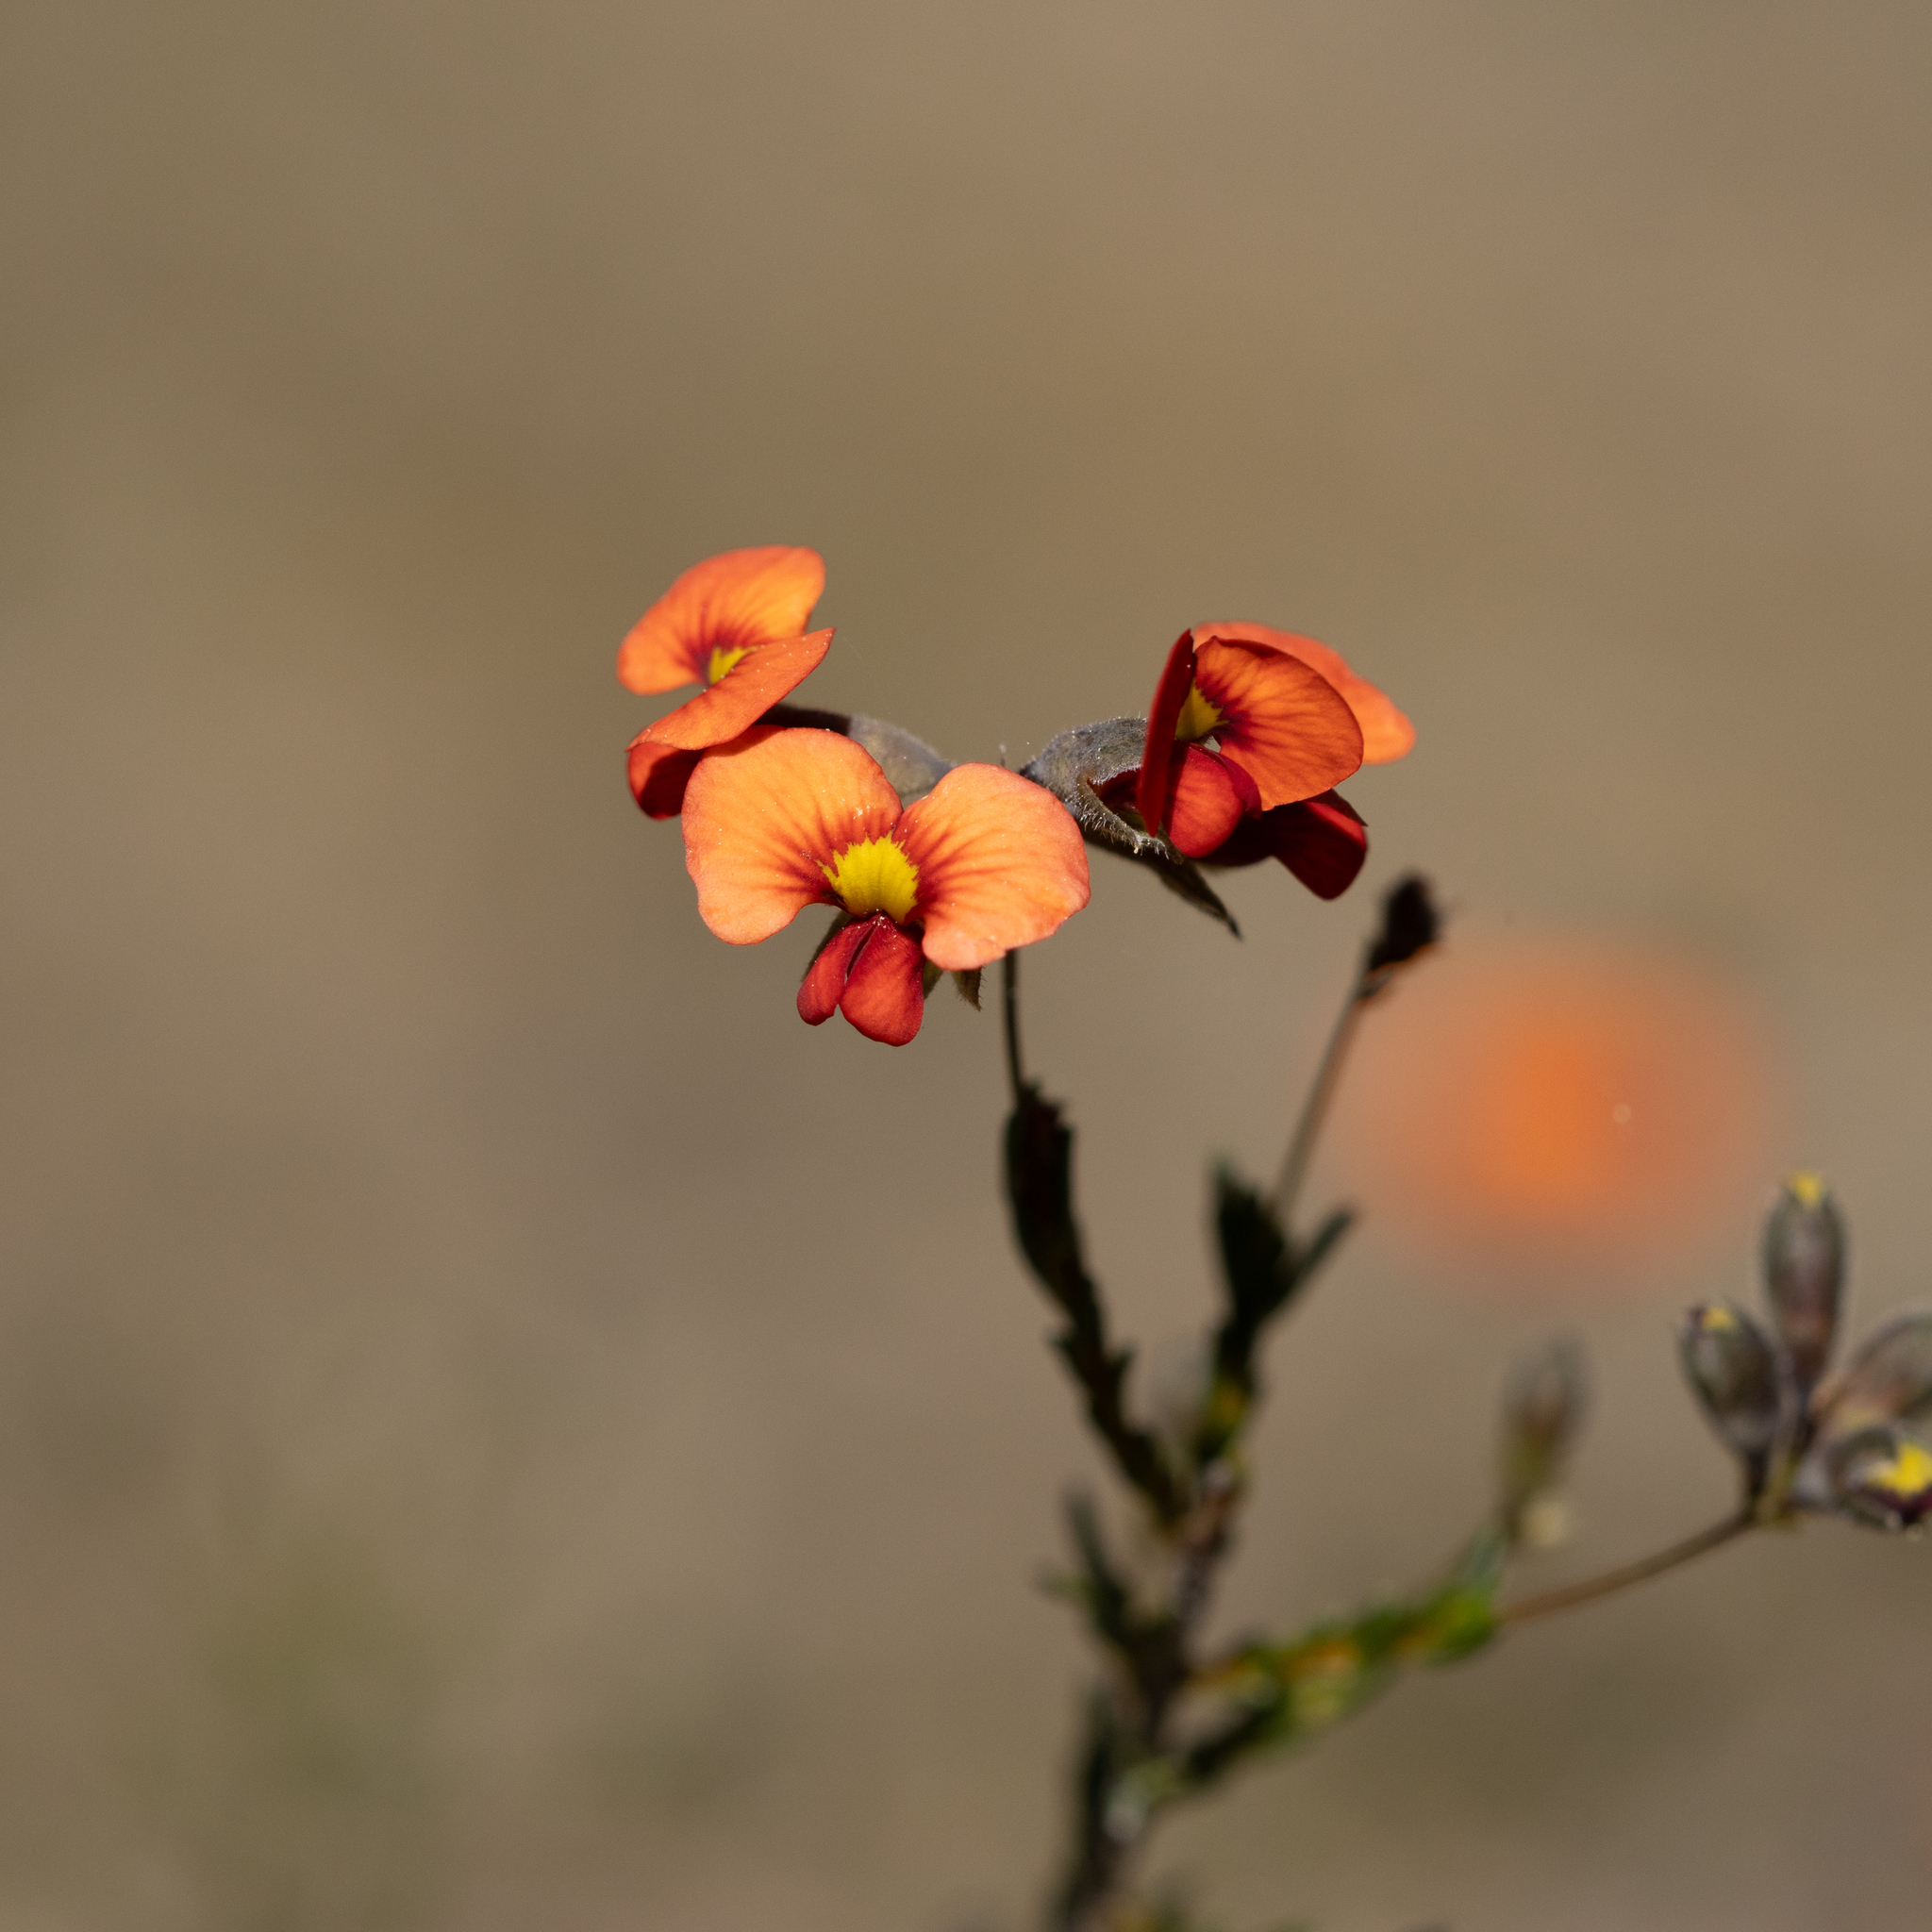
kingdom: Plantae
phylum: Tracheophyta
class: Magnoliopsida
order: Fabales
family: Fabaceae
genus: Dillwynia
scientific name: Dillwynia hispida
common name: Red parrot-pea
